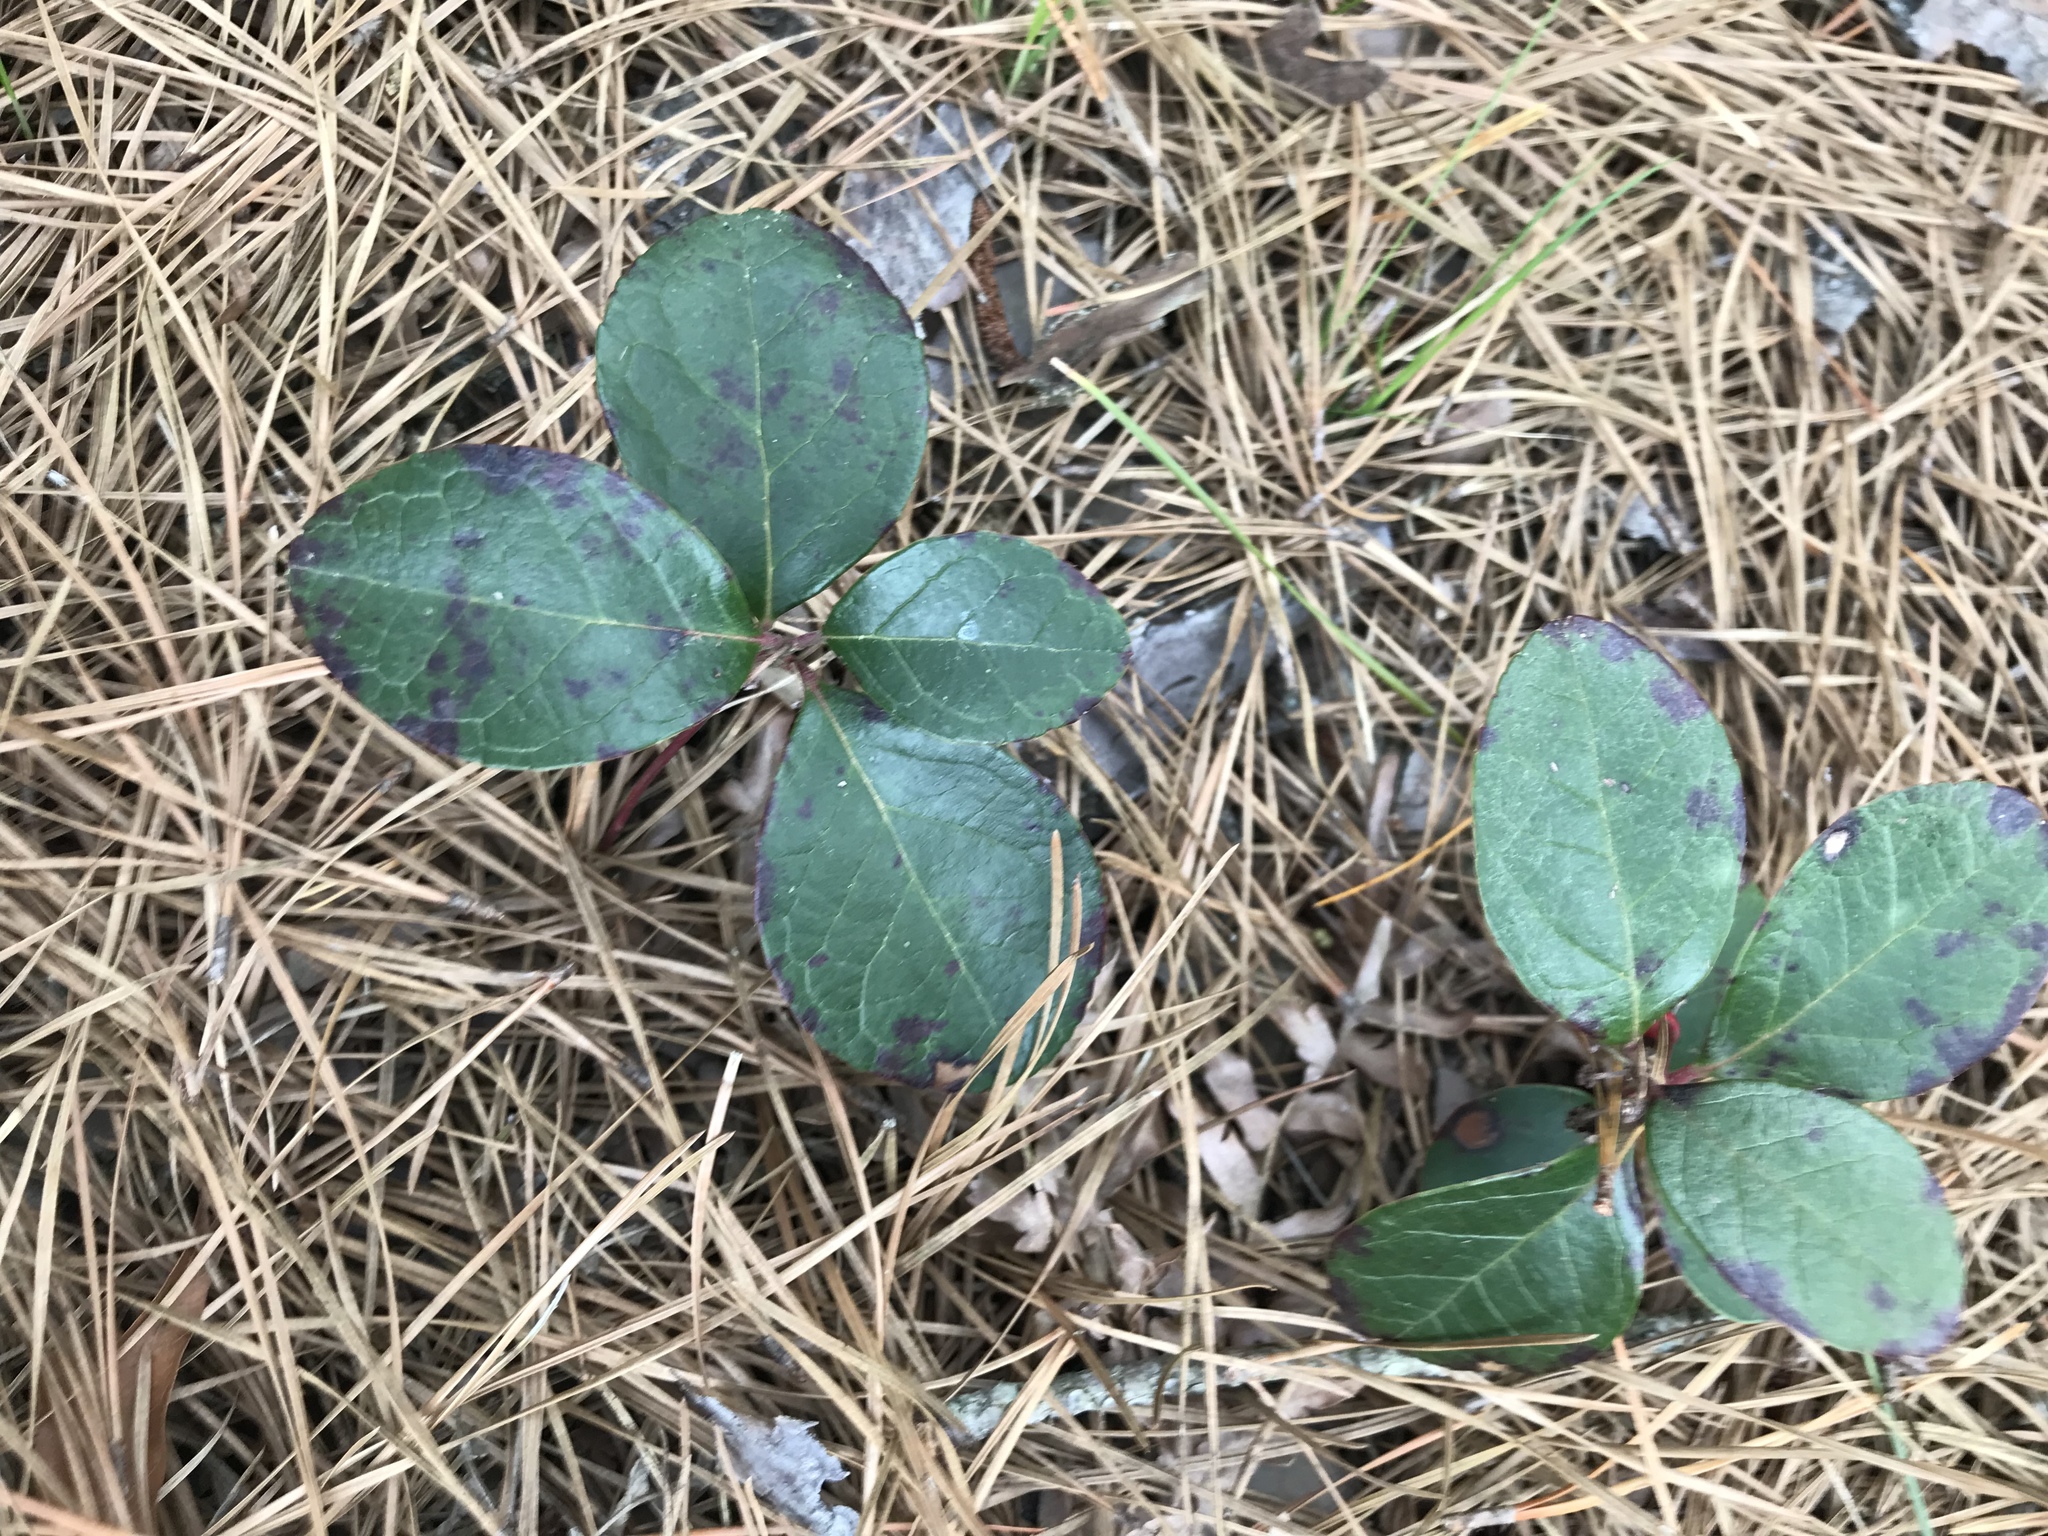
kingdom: Plantae
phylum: Tracheophyta
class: Magnoliopsida
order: Ericales
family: Ericaceae
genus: Gaultheria
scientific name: Gaultheria procumbens
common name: Checkerberry
